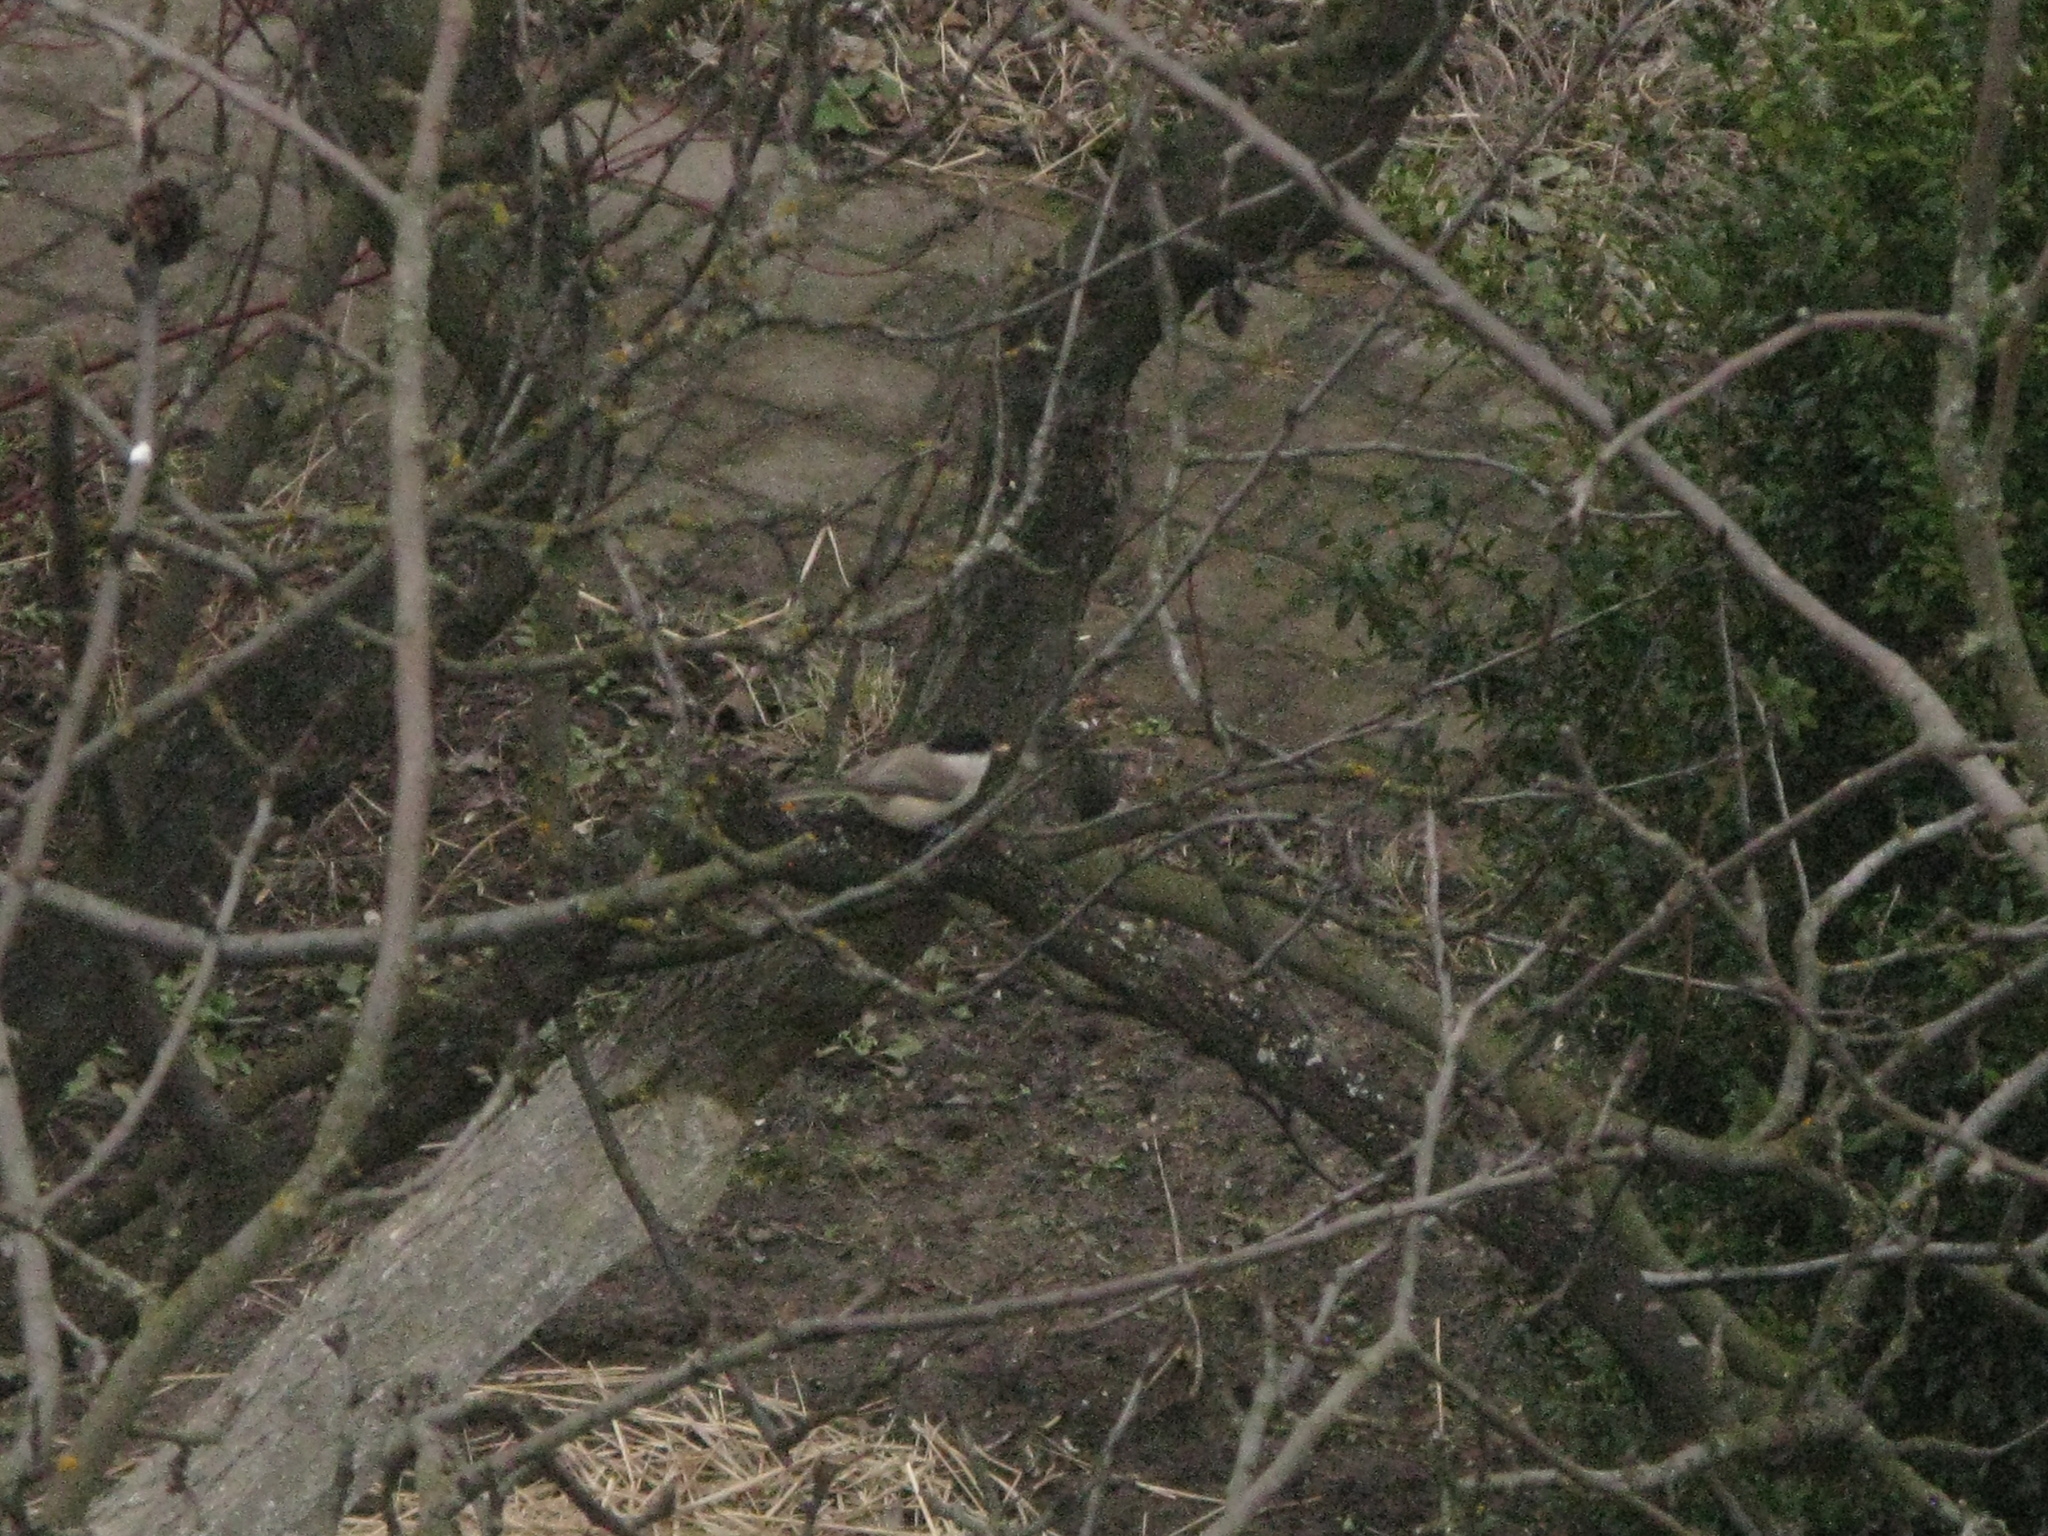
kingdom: Animalia
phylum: Chordata
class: Aves
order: Passeriformes
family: Paridae
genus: Poecile
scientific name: Poecile palustris
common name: Marsh tit
